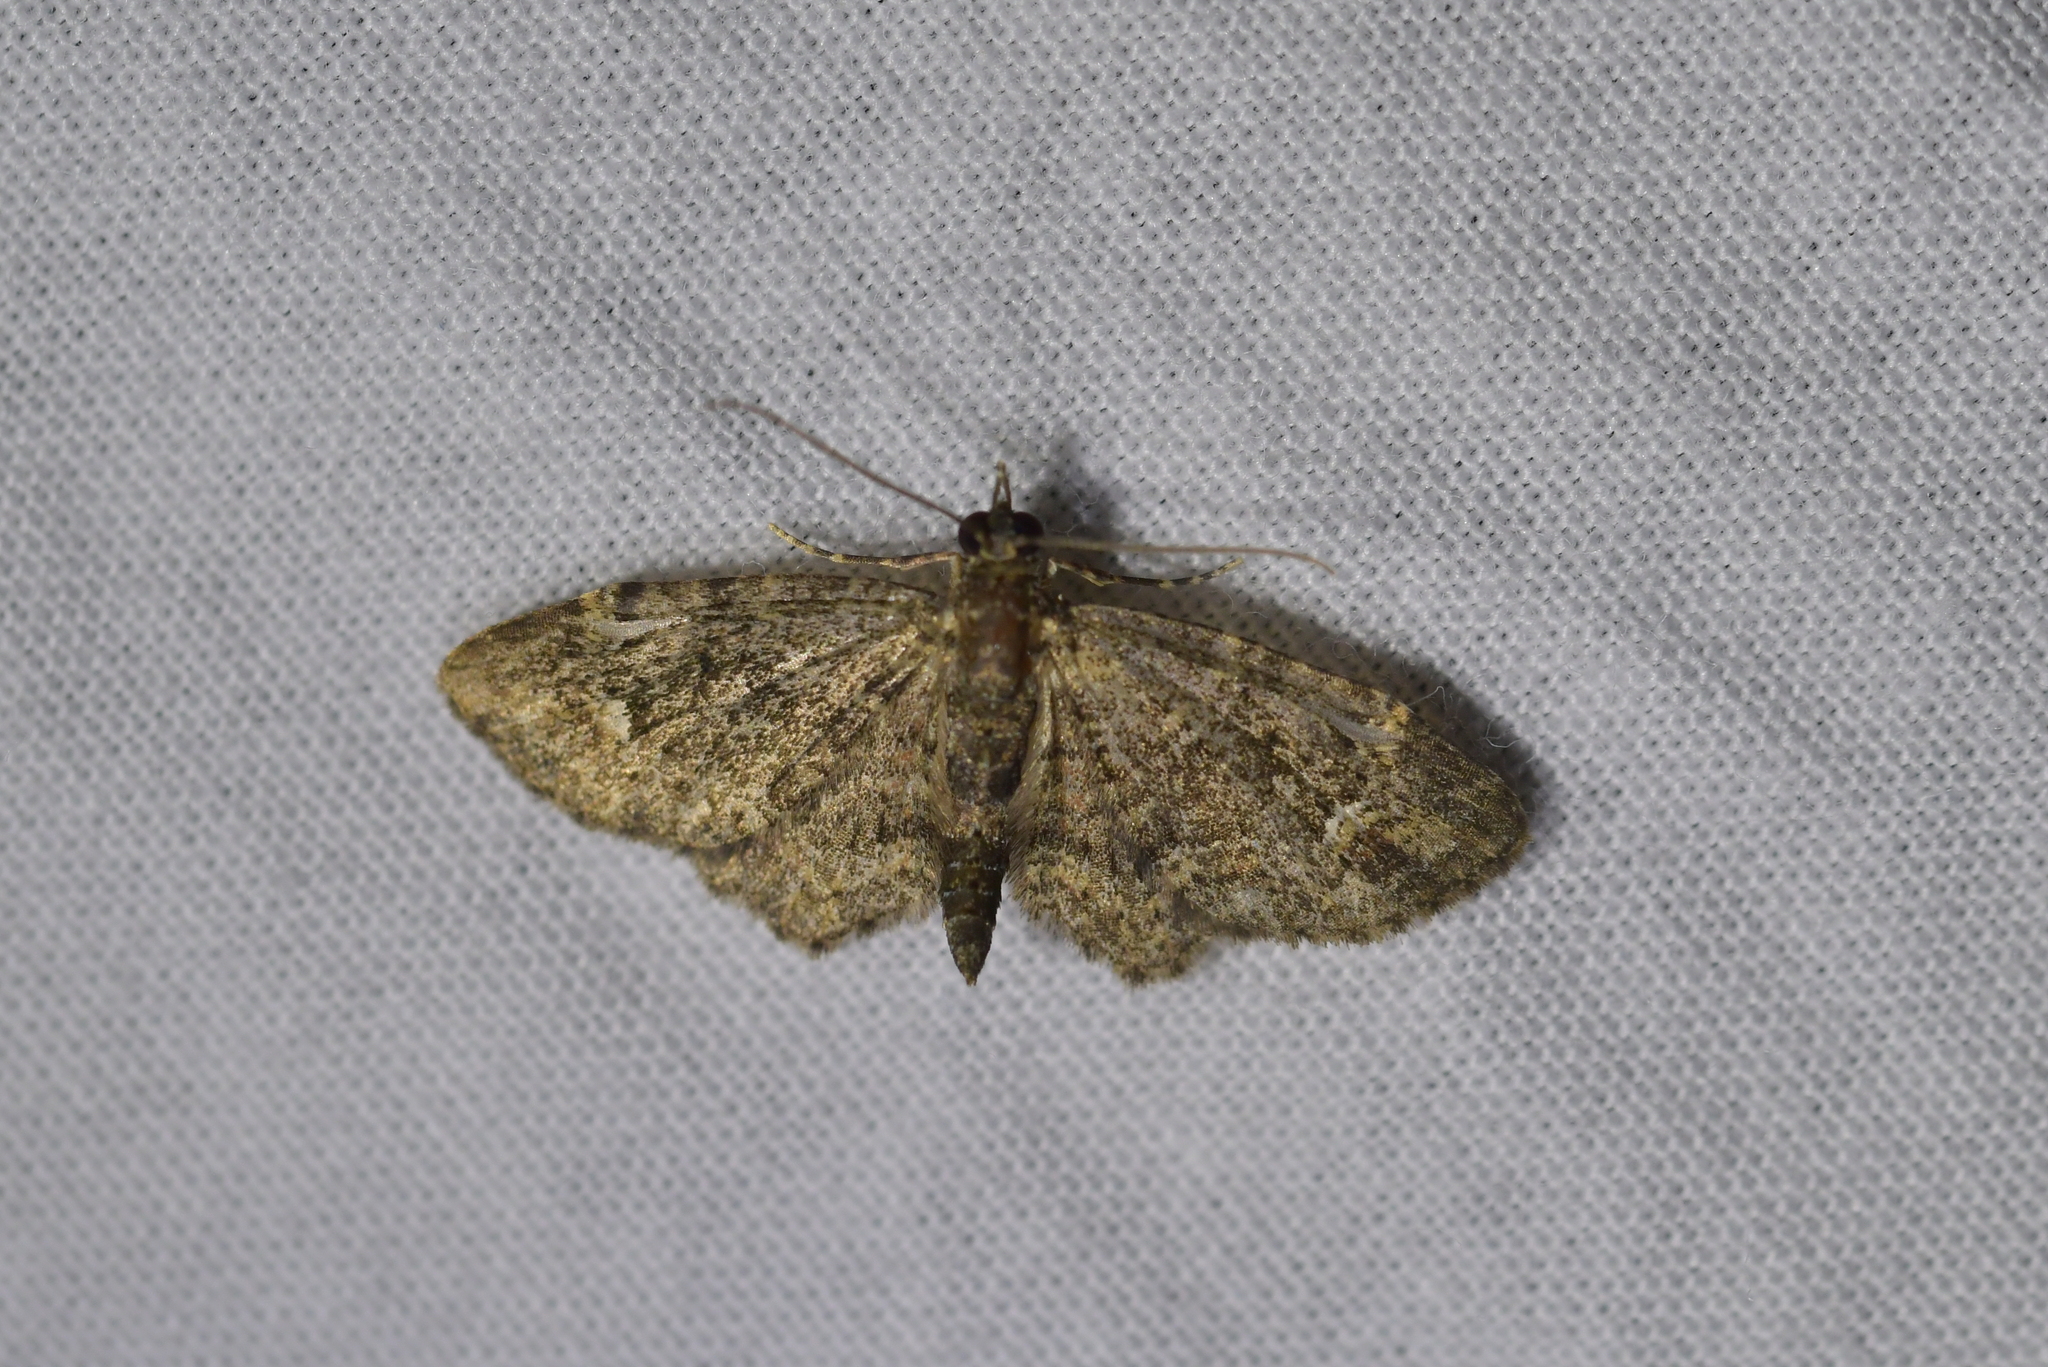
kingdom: Animalia
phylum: Arthropoda
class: Insecta
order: Lepidoptera
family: Geometridae
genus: Pasiphilodes
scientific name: Pasiphilodes testulata
